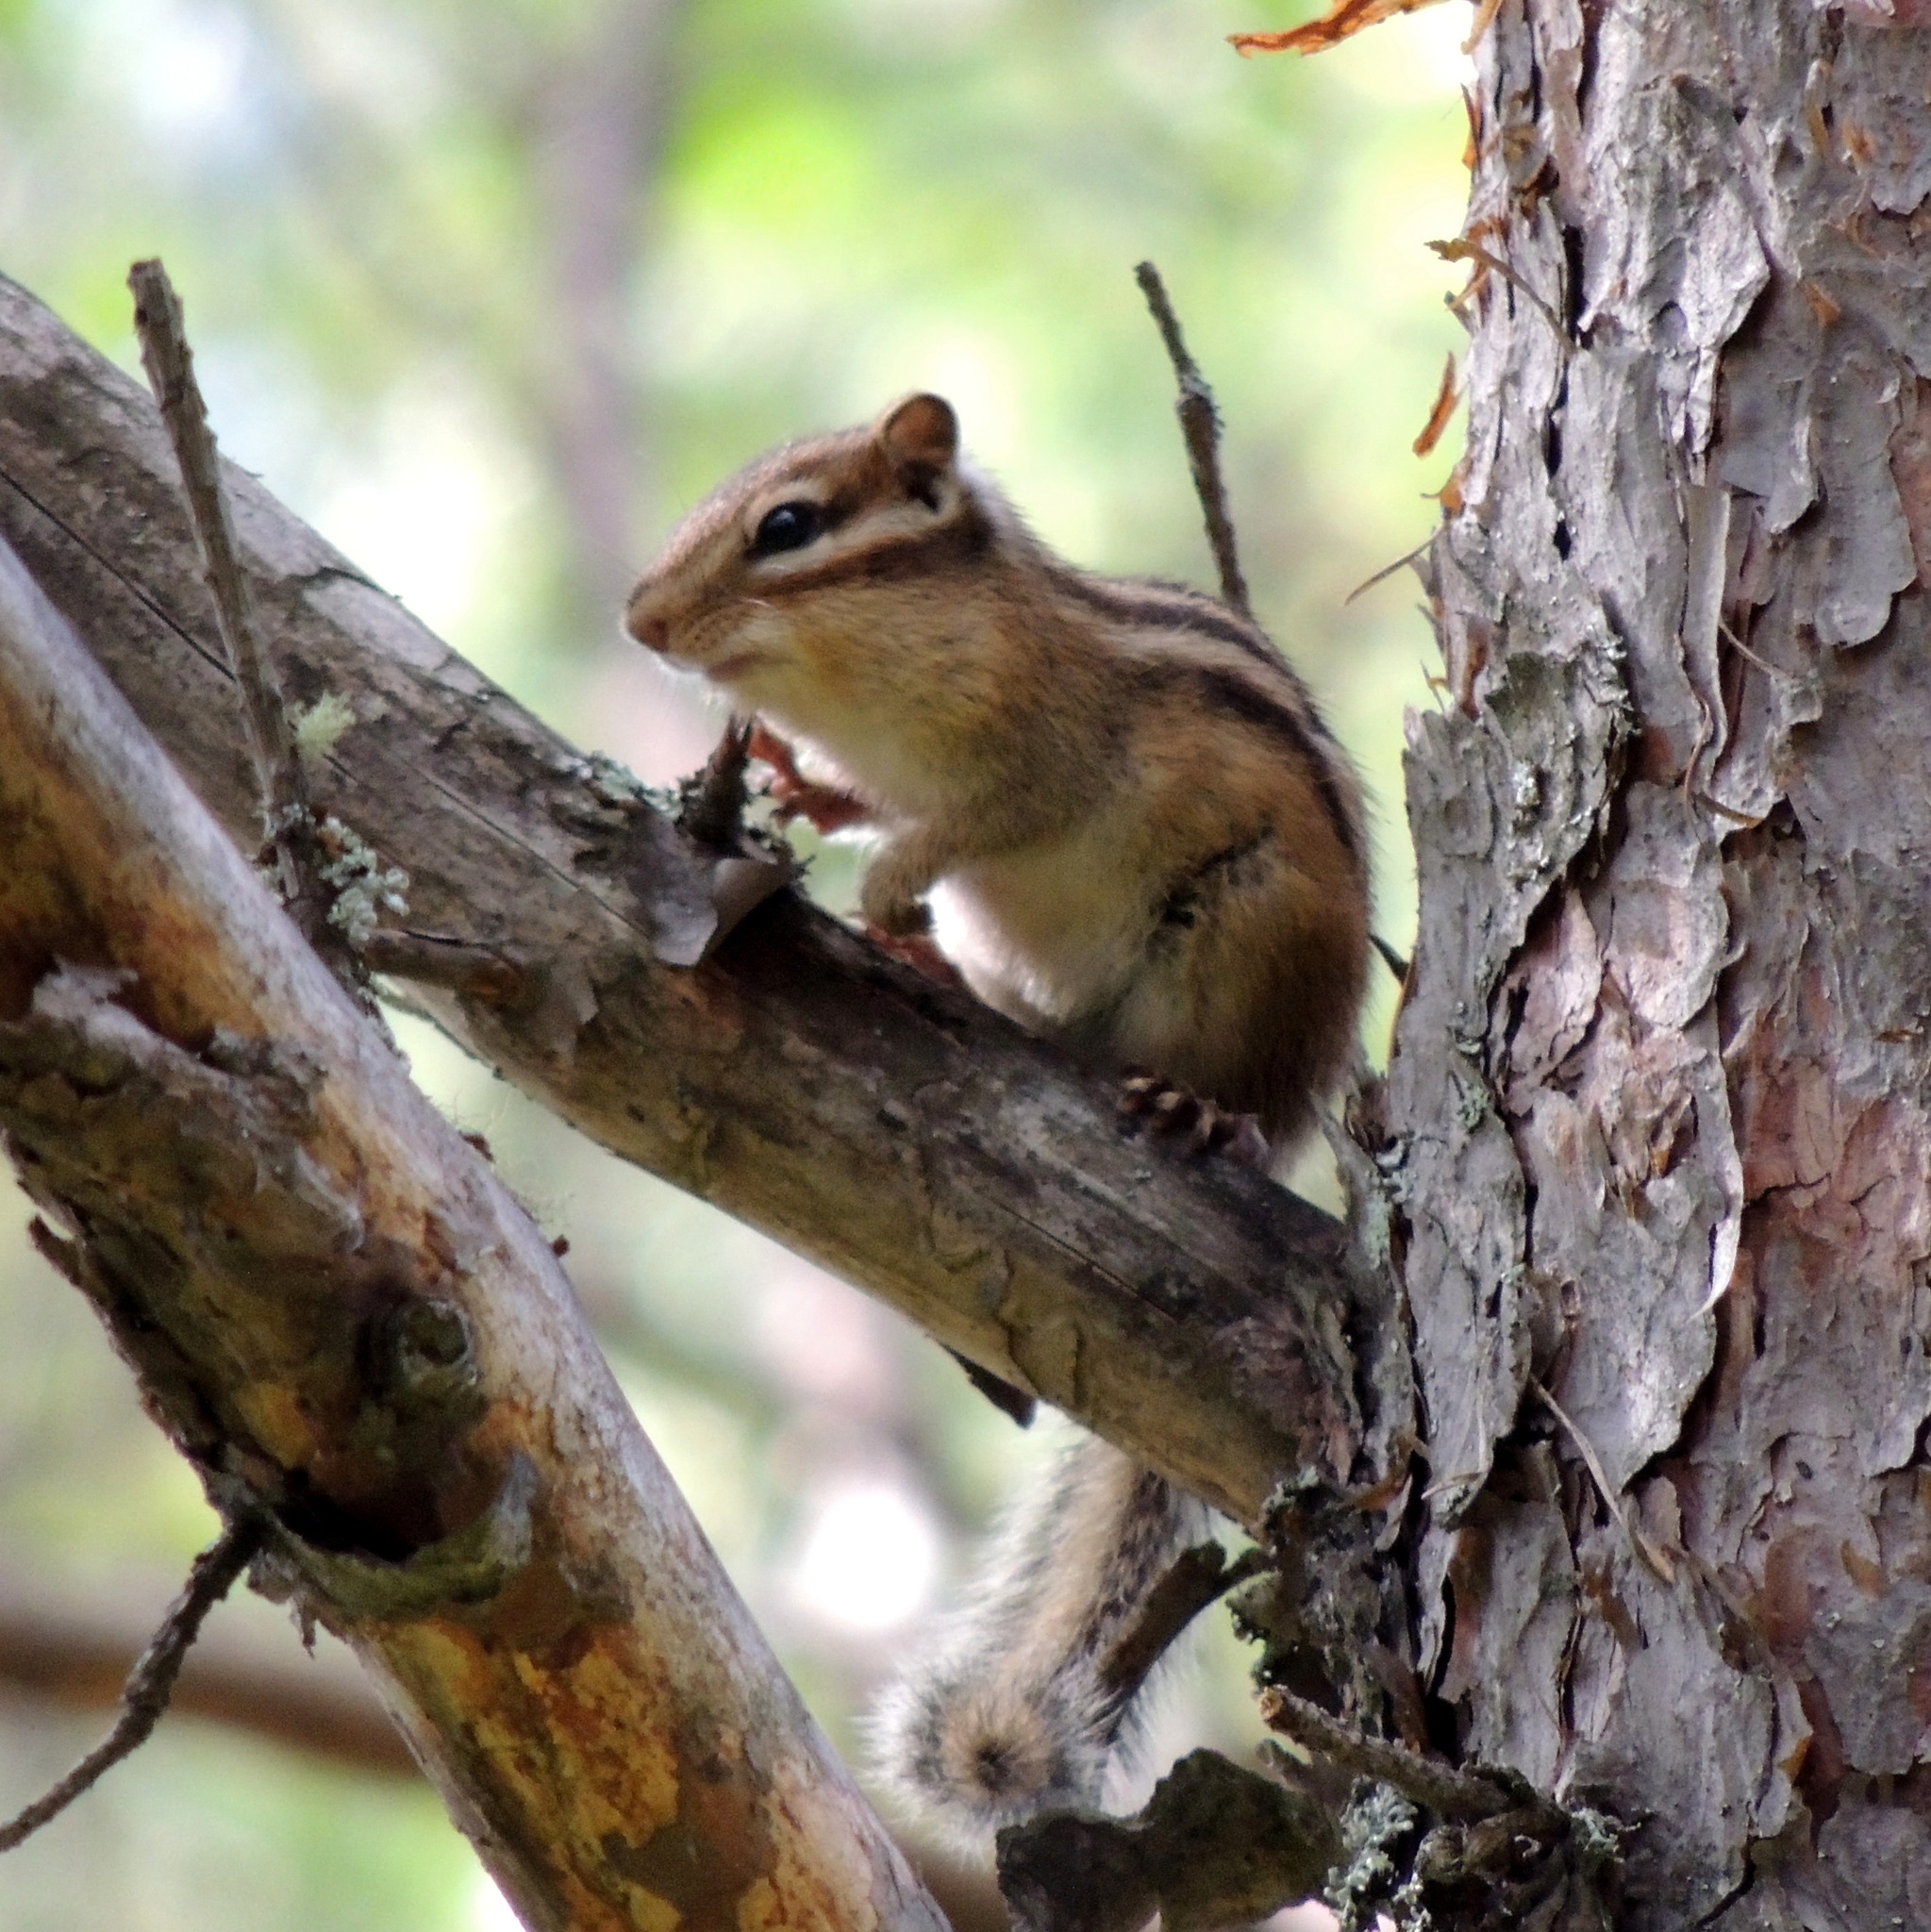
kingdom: Animalia
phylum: Chordata
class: Mammalia
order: Rodentia
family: Sciuridae
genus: Tamias
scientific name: Tamias sibiricus
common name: Siberian chipmunk
